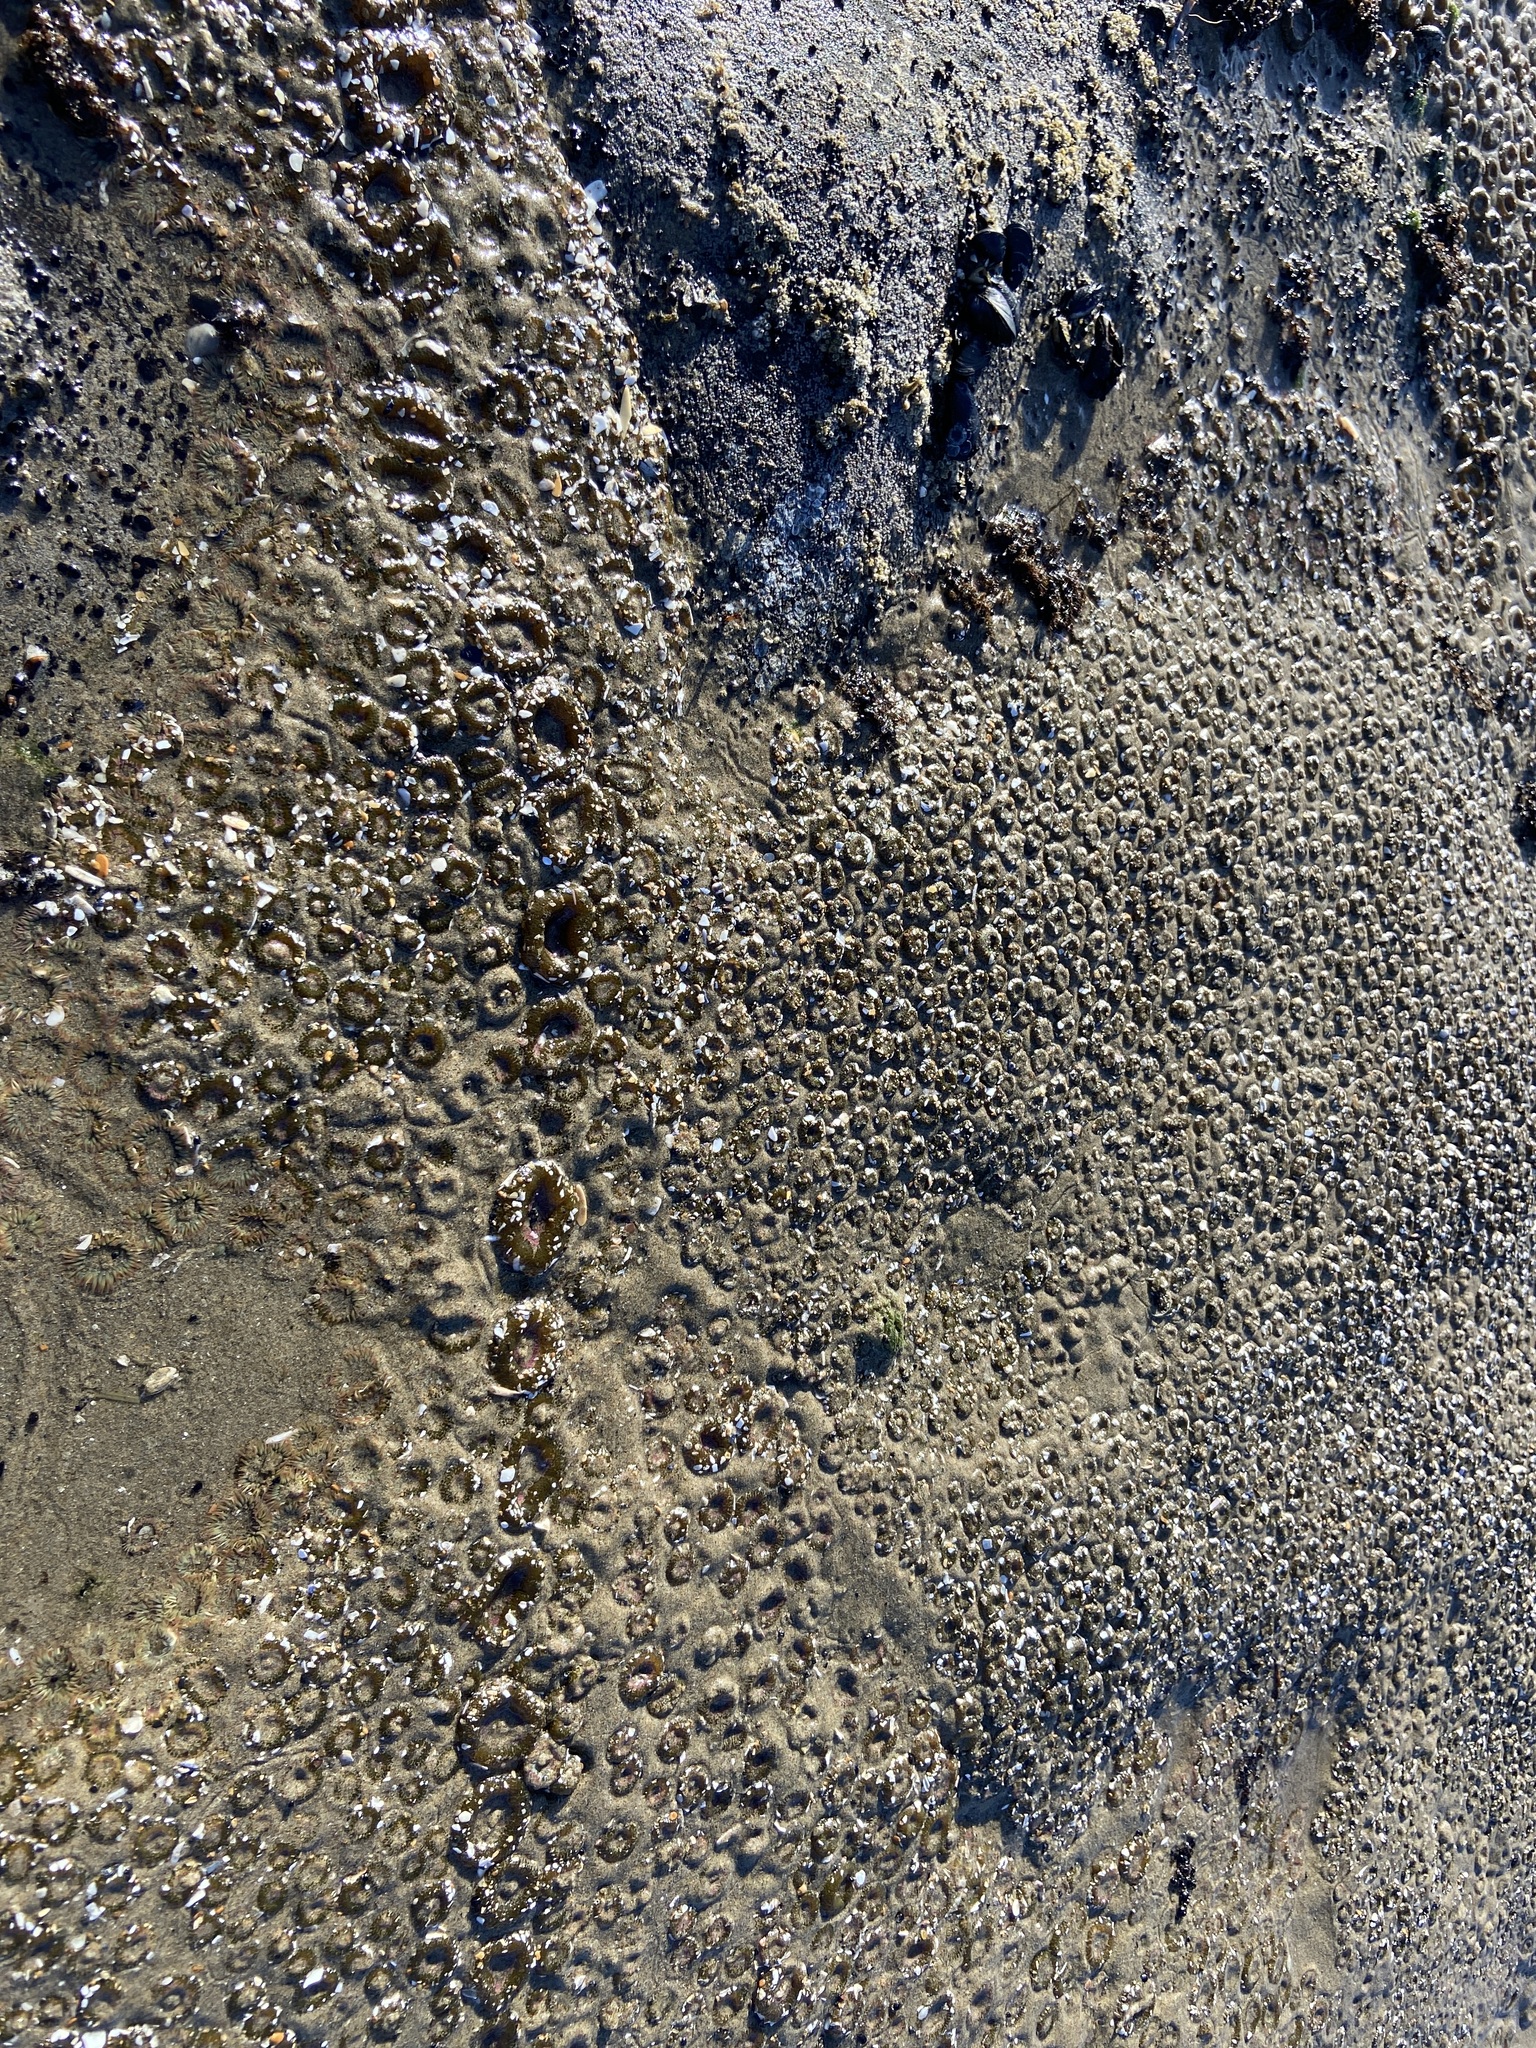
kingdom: Animalia
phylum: Cnidaria
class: Anthozoa
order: Actiniaria
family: Actiniidae
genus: Anthopleura
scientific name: Anthopleura elegantissima
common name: Clonal anemone
